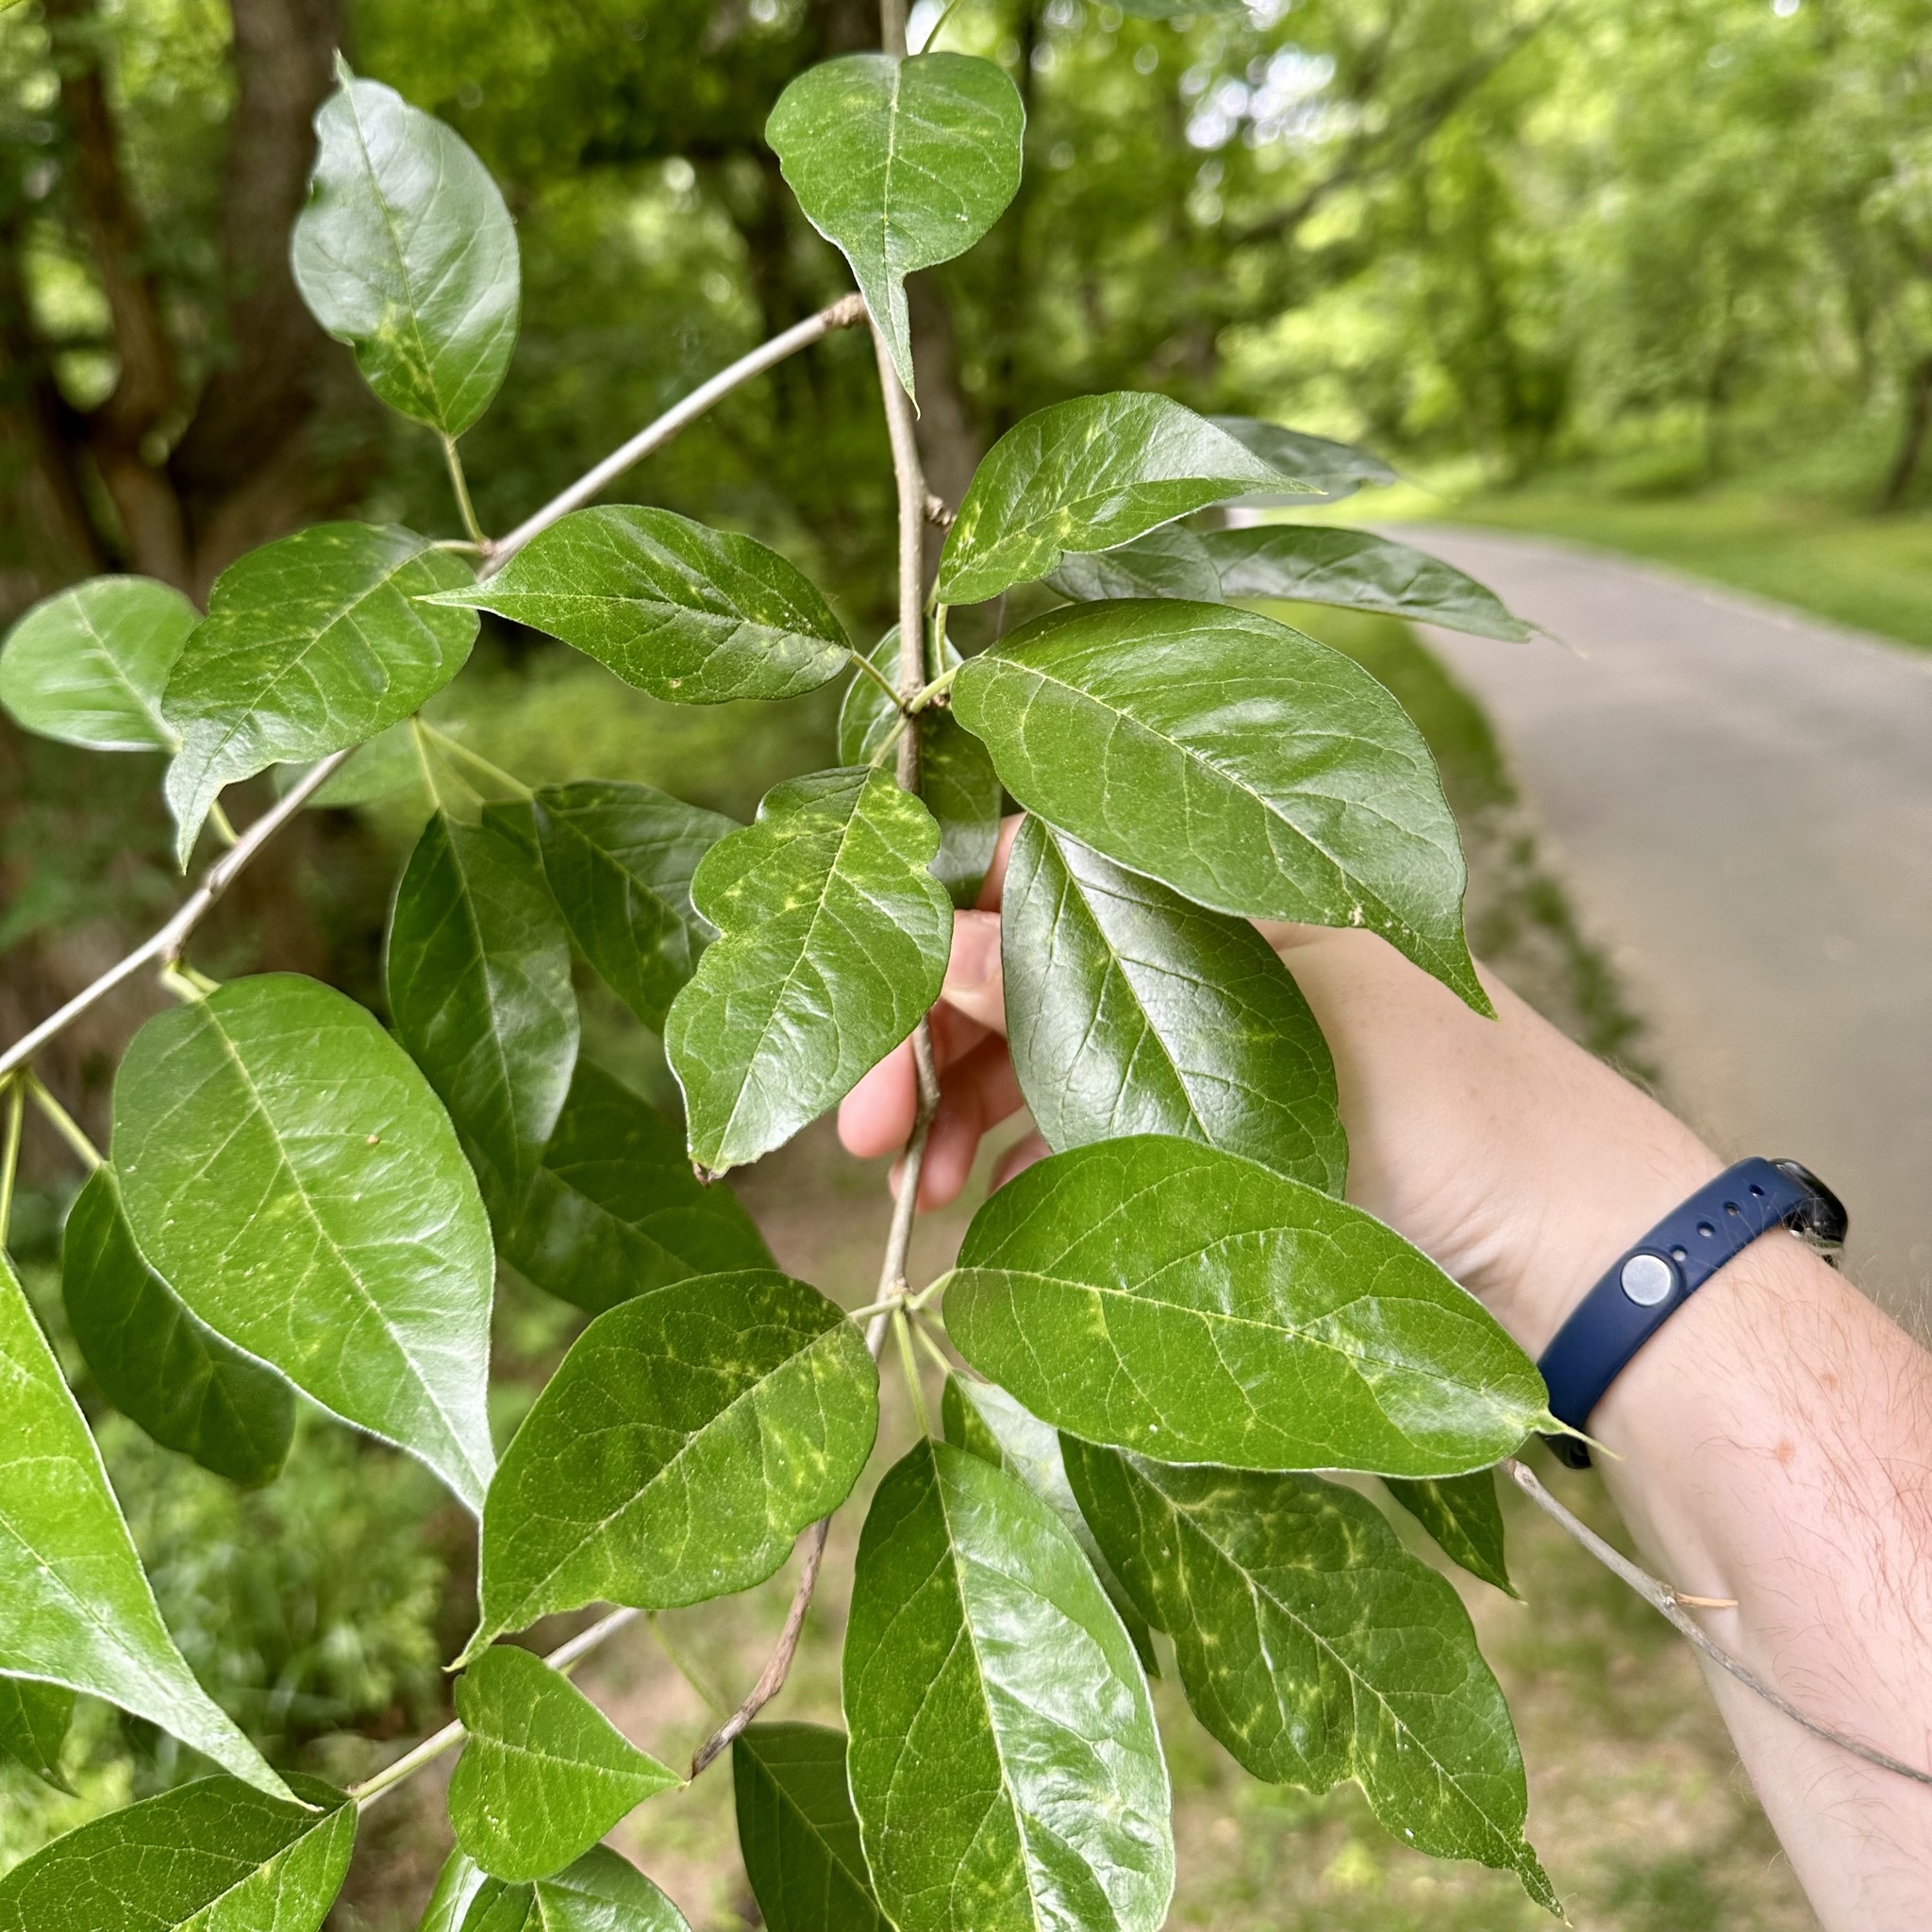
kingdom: Plantae
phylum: Tracheophyta
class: Magnoliopsida
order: Rosales
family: Moraceae
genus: Maclura
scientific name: Maclura pomifera
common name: Osage-orange
